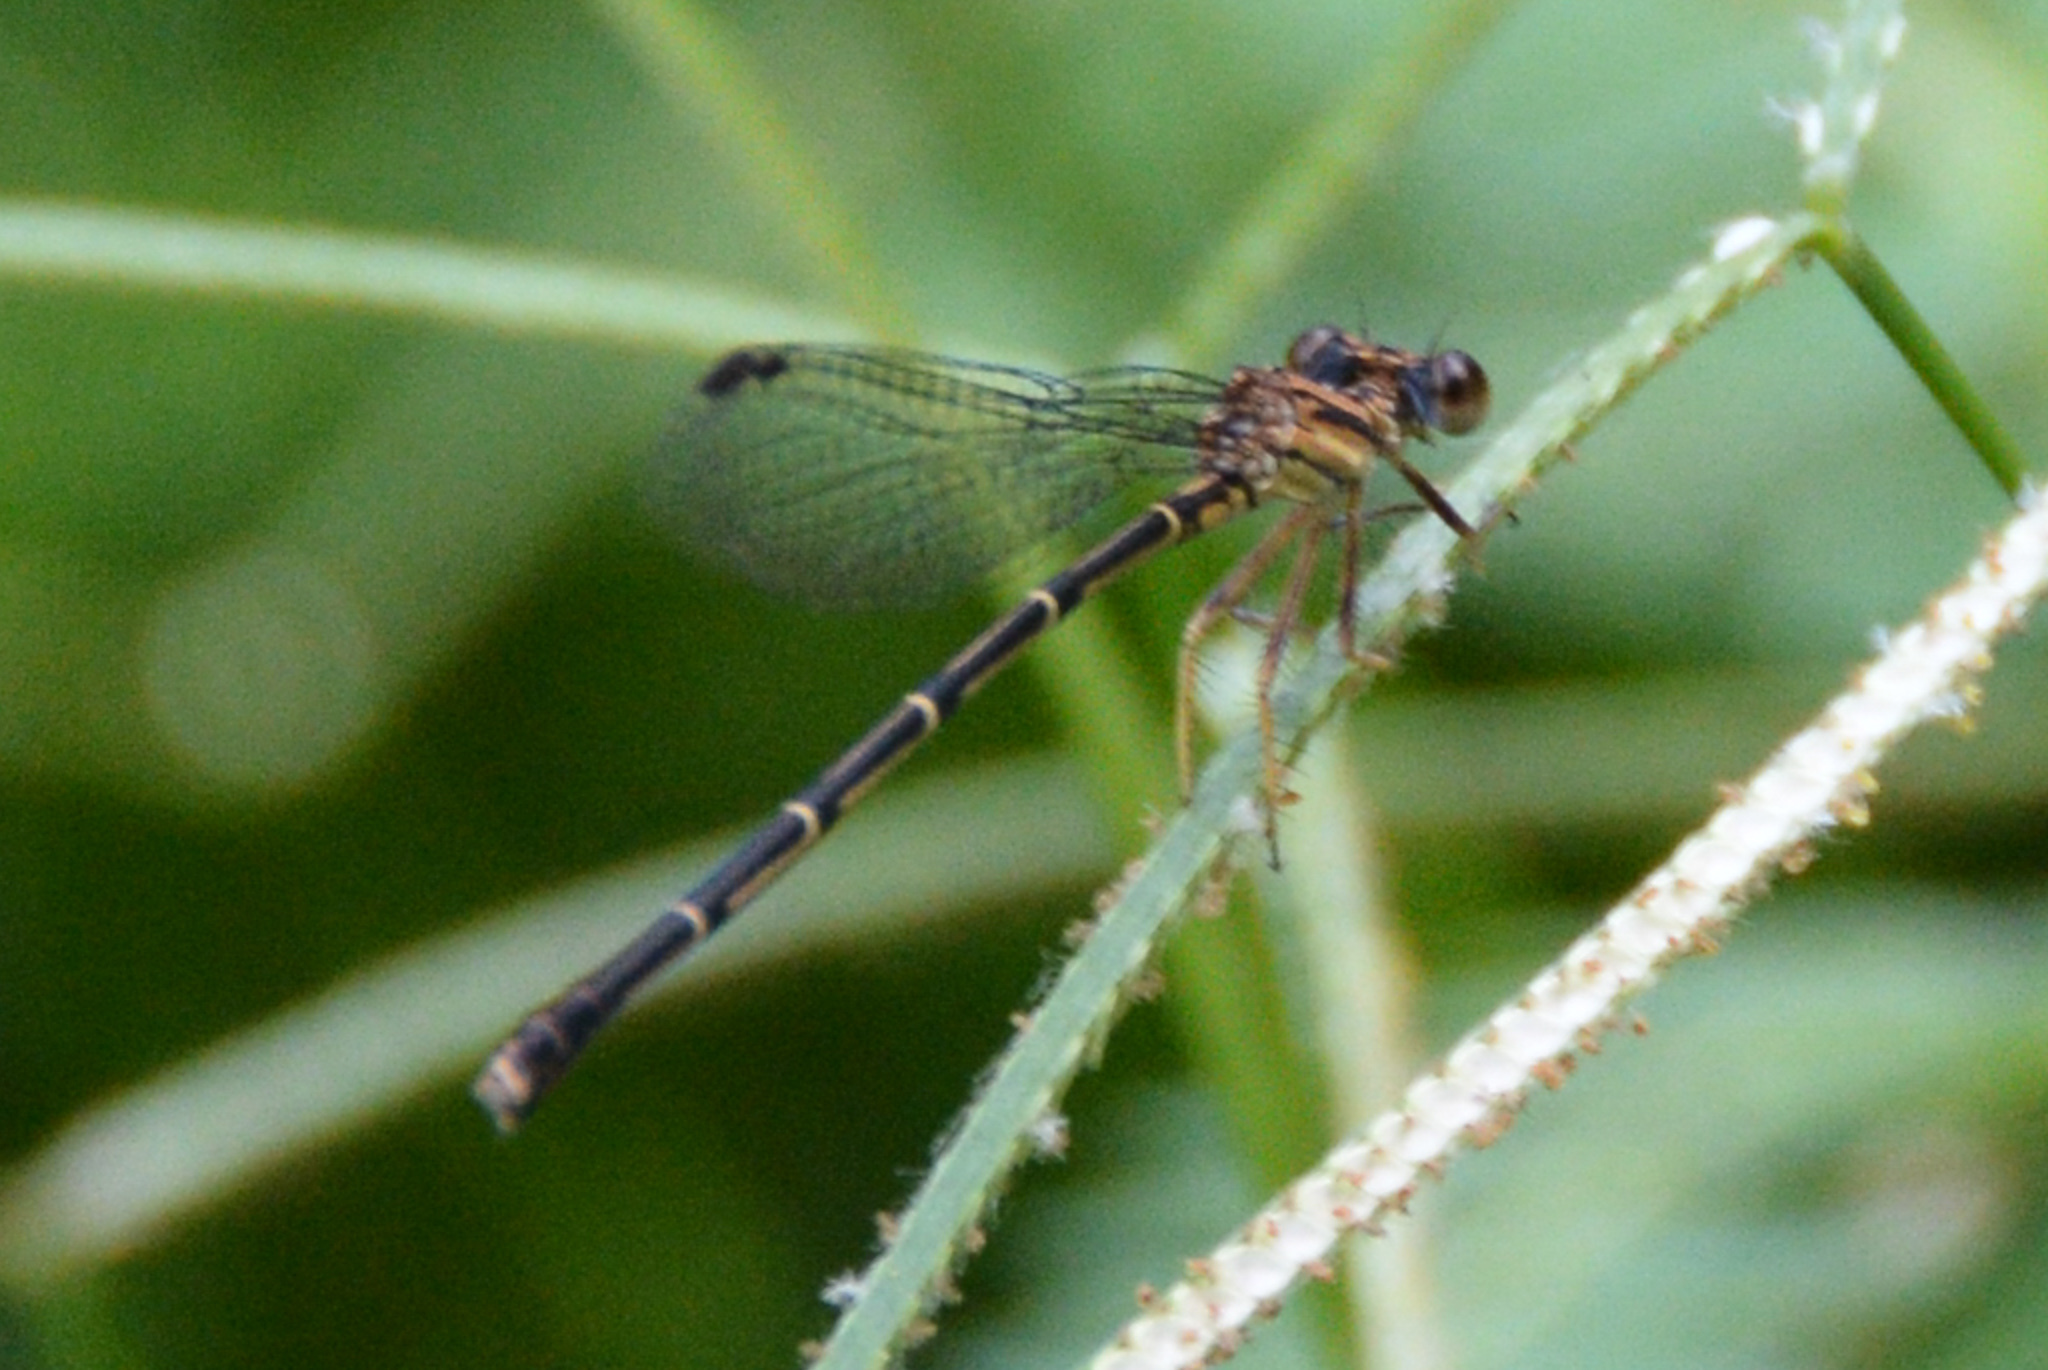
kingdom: Animalia
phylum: Arthropoda
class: Insecta
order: Odonata
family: Coenagrionidae
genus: Argia
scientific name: Argia tibialis
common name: Blue-tipped dancer
